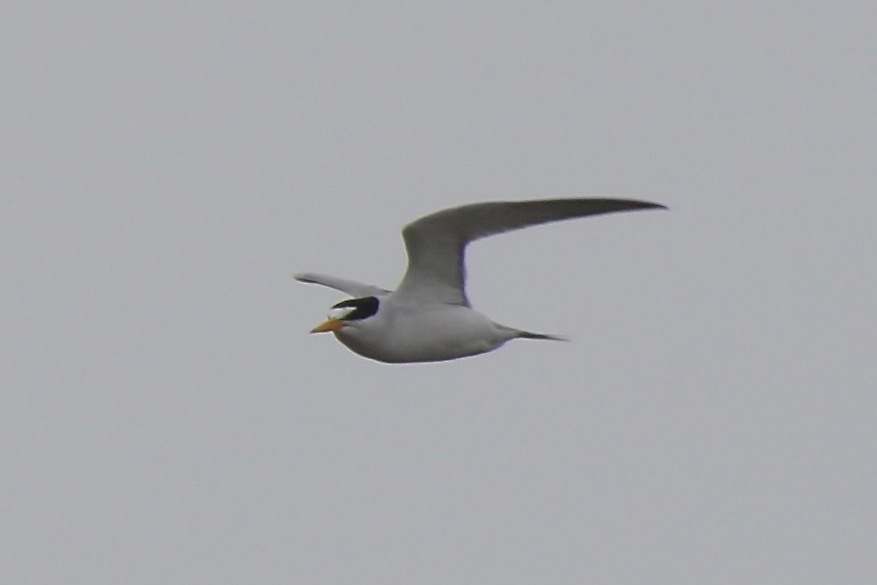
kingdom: Animalia
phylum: Chordata
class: Aves
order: Charadriiformes
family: Laridae
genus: Sternula
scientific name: Sternula antillarum
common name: Least tern
